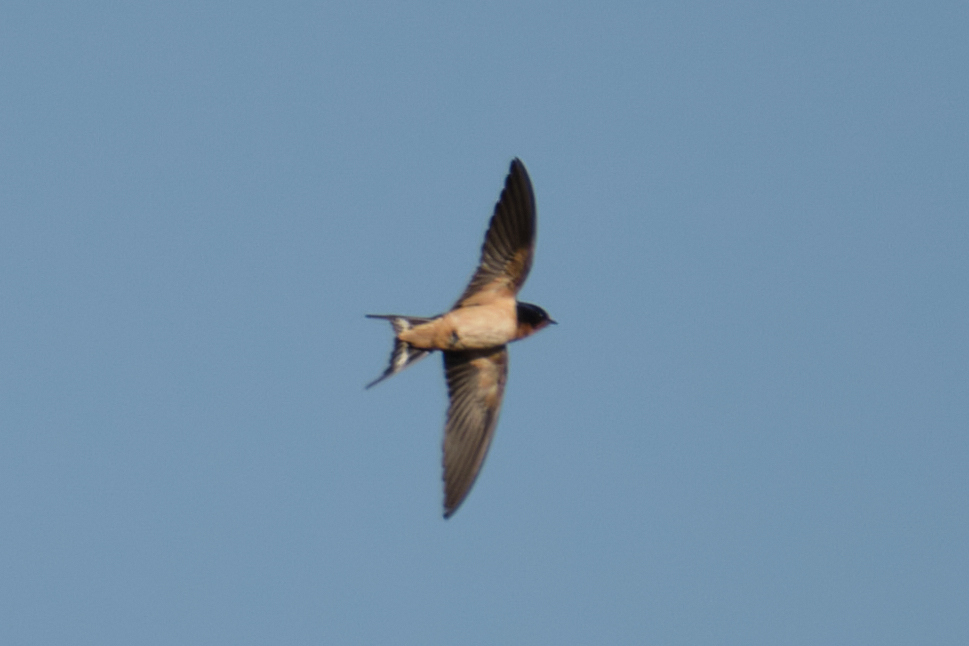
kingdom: Animalia
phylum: Chordata
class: Aves
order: Passeriformes
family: Hirundinidae
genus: Hirundo
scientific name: Hirundo rustica
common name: Barn swallow
